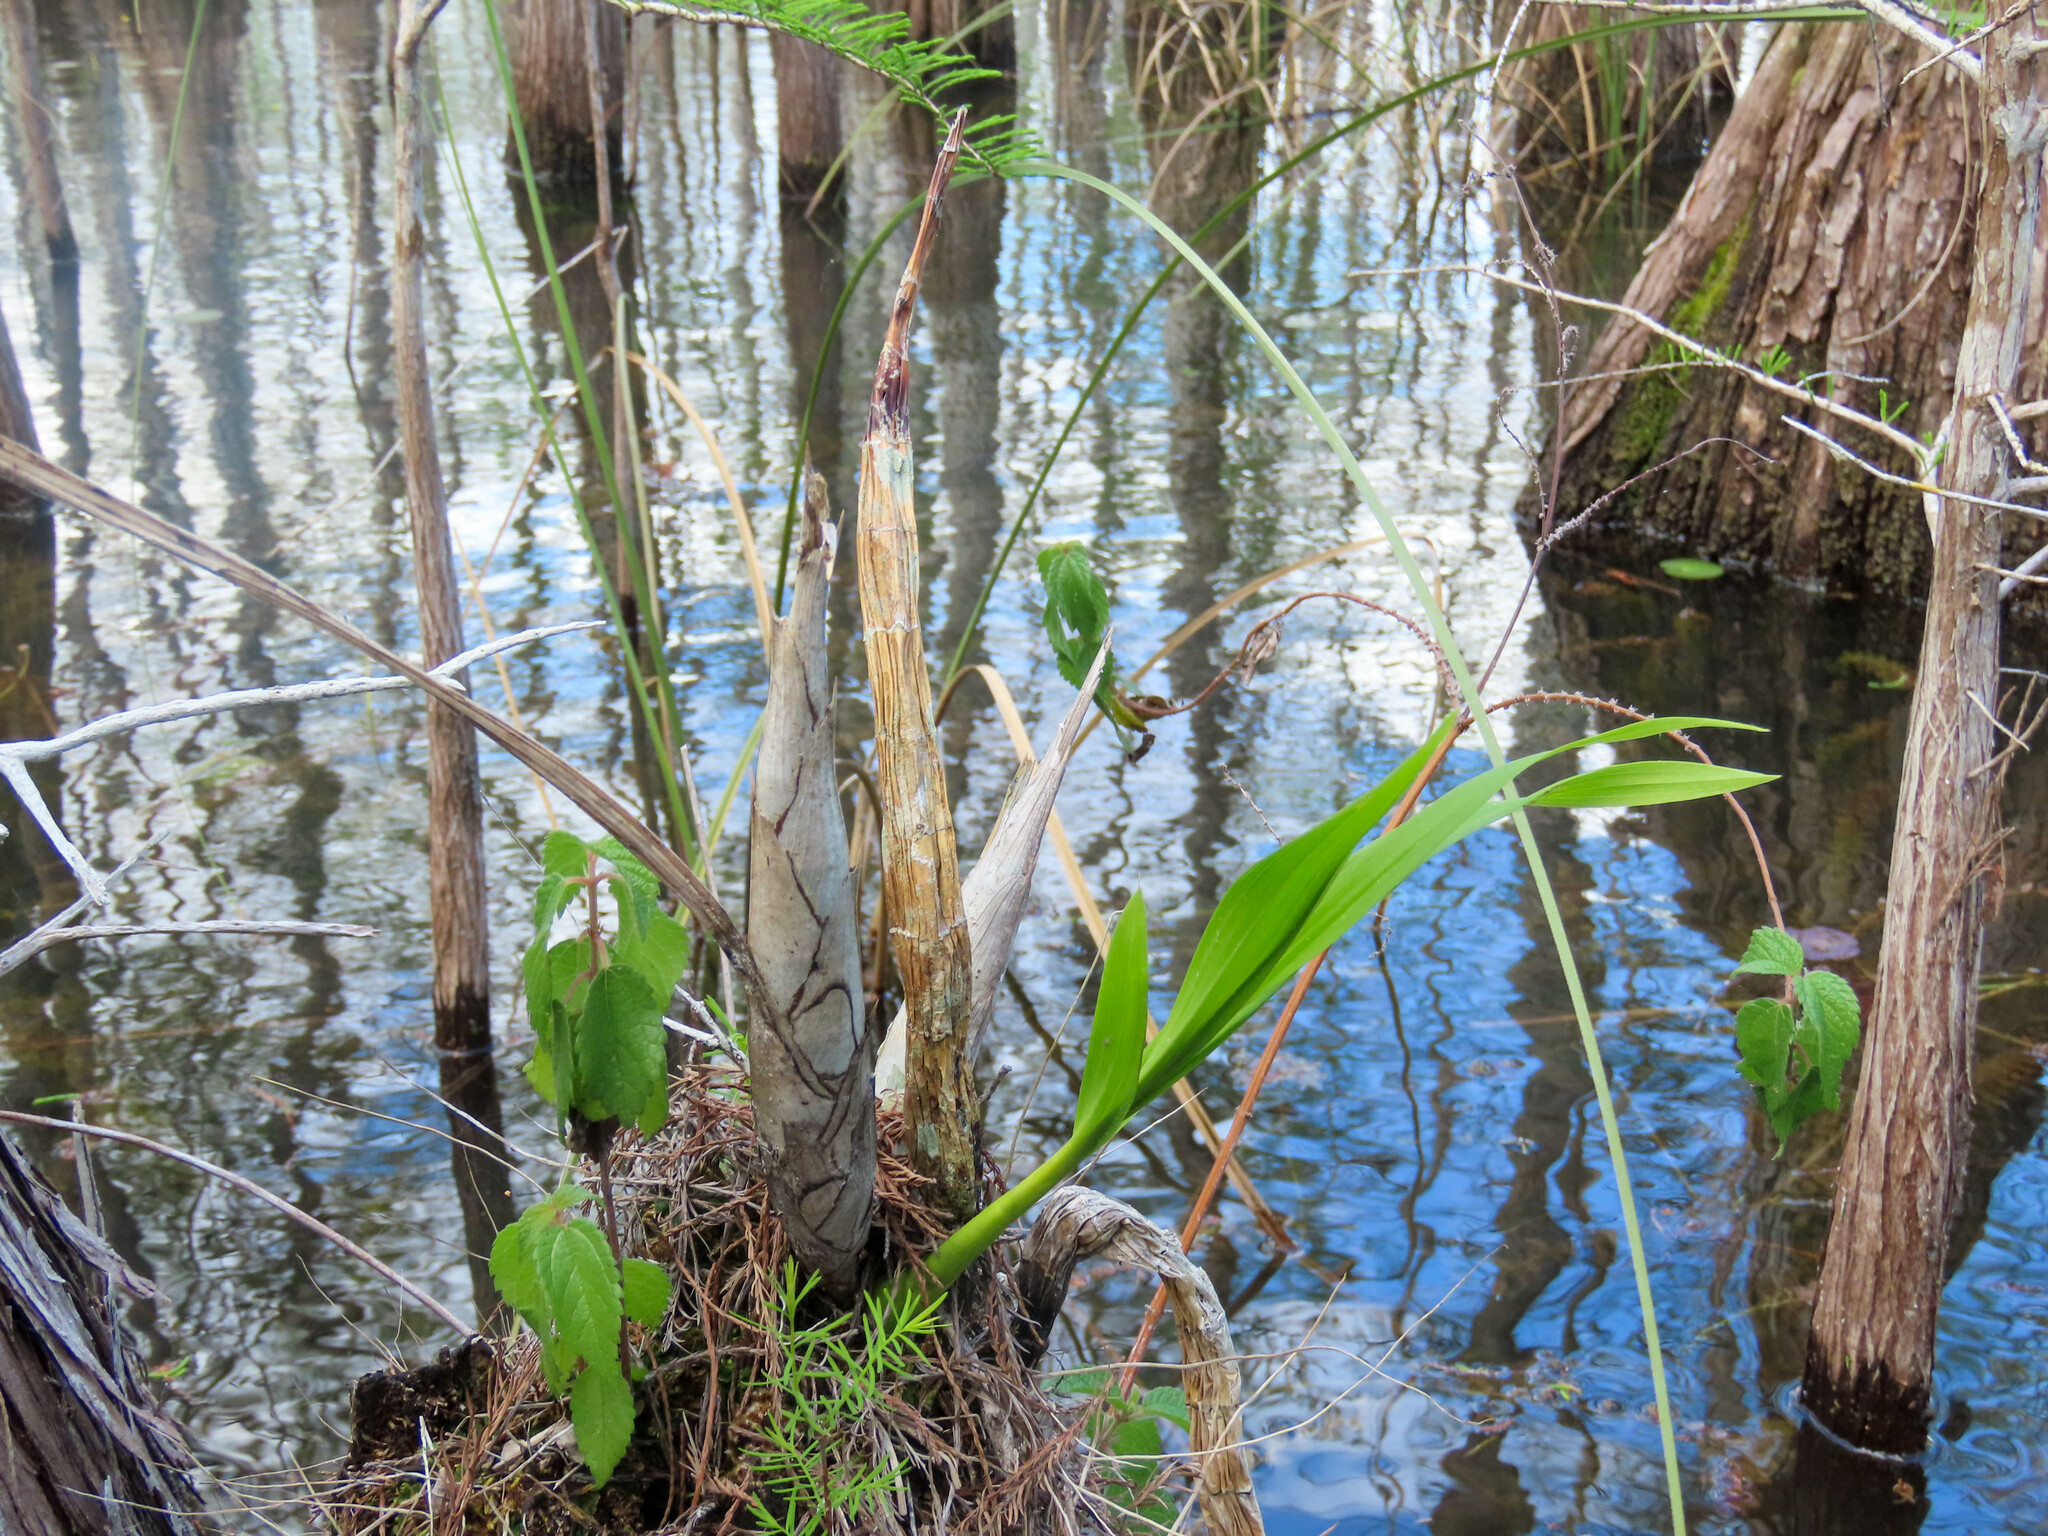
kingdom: Plantae
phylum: Tracheophyta
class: Liliopsida
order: Asparagales
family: Orchidaceae
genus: Cyrtopodium
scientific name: Cyrtopodium punctatum
